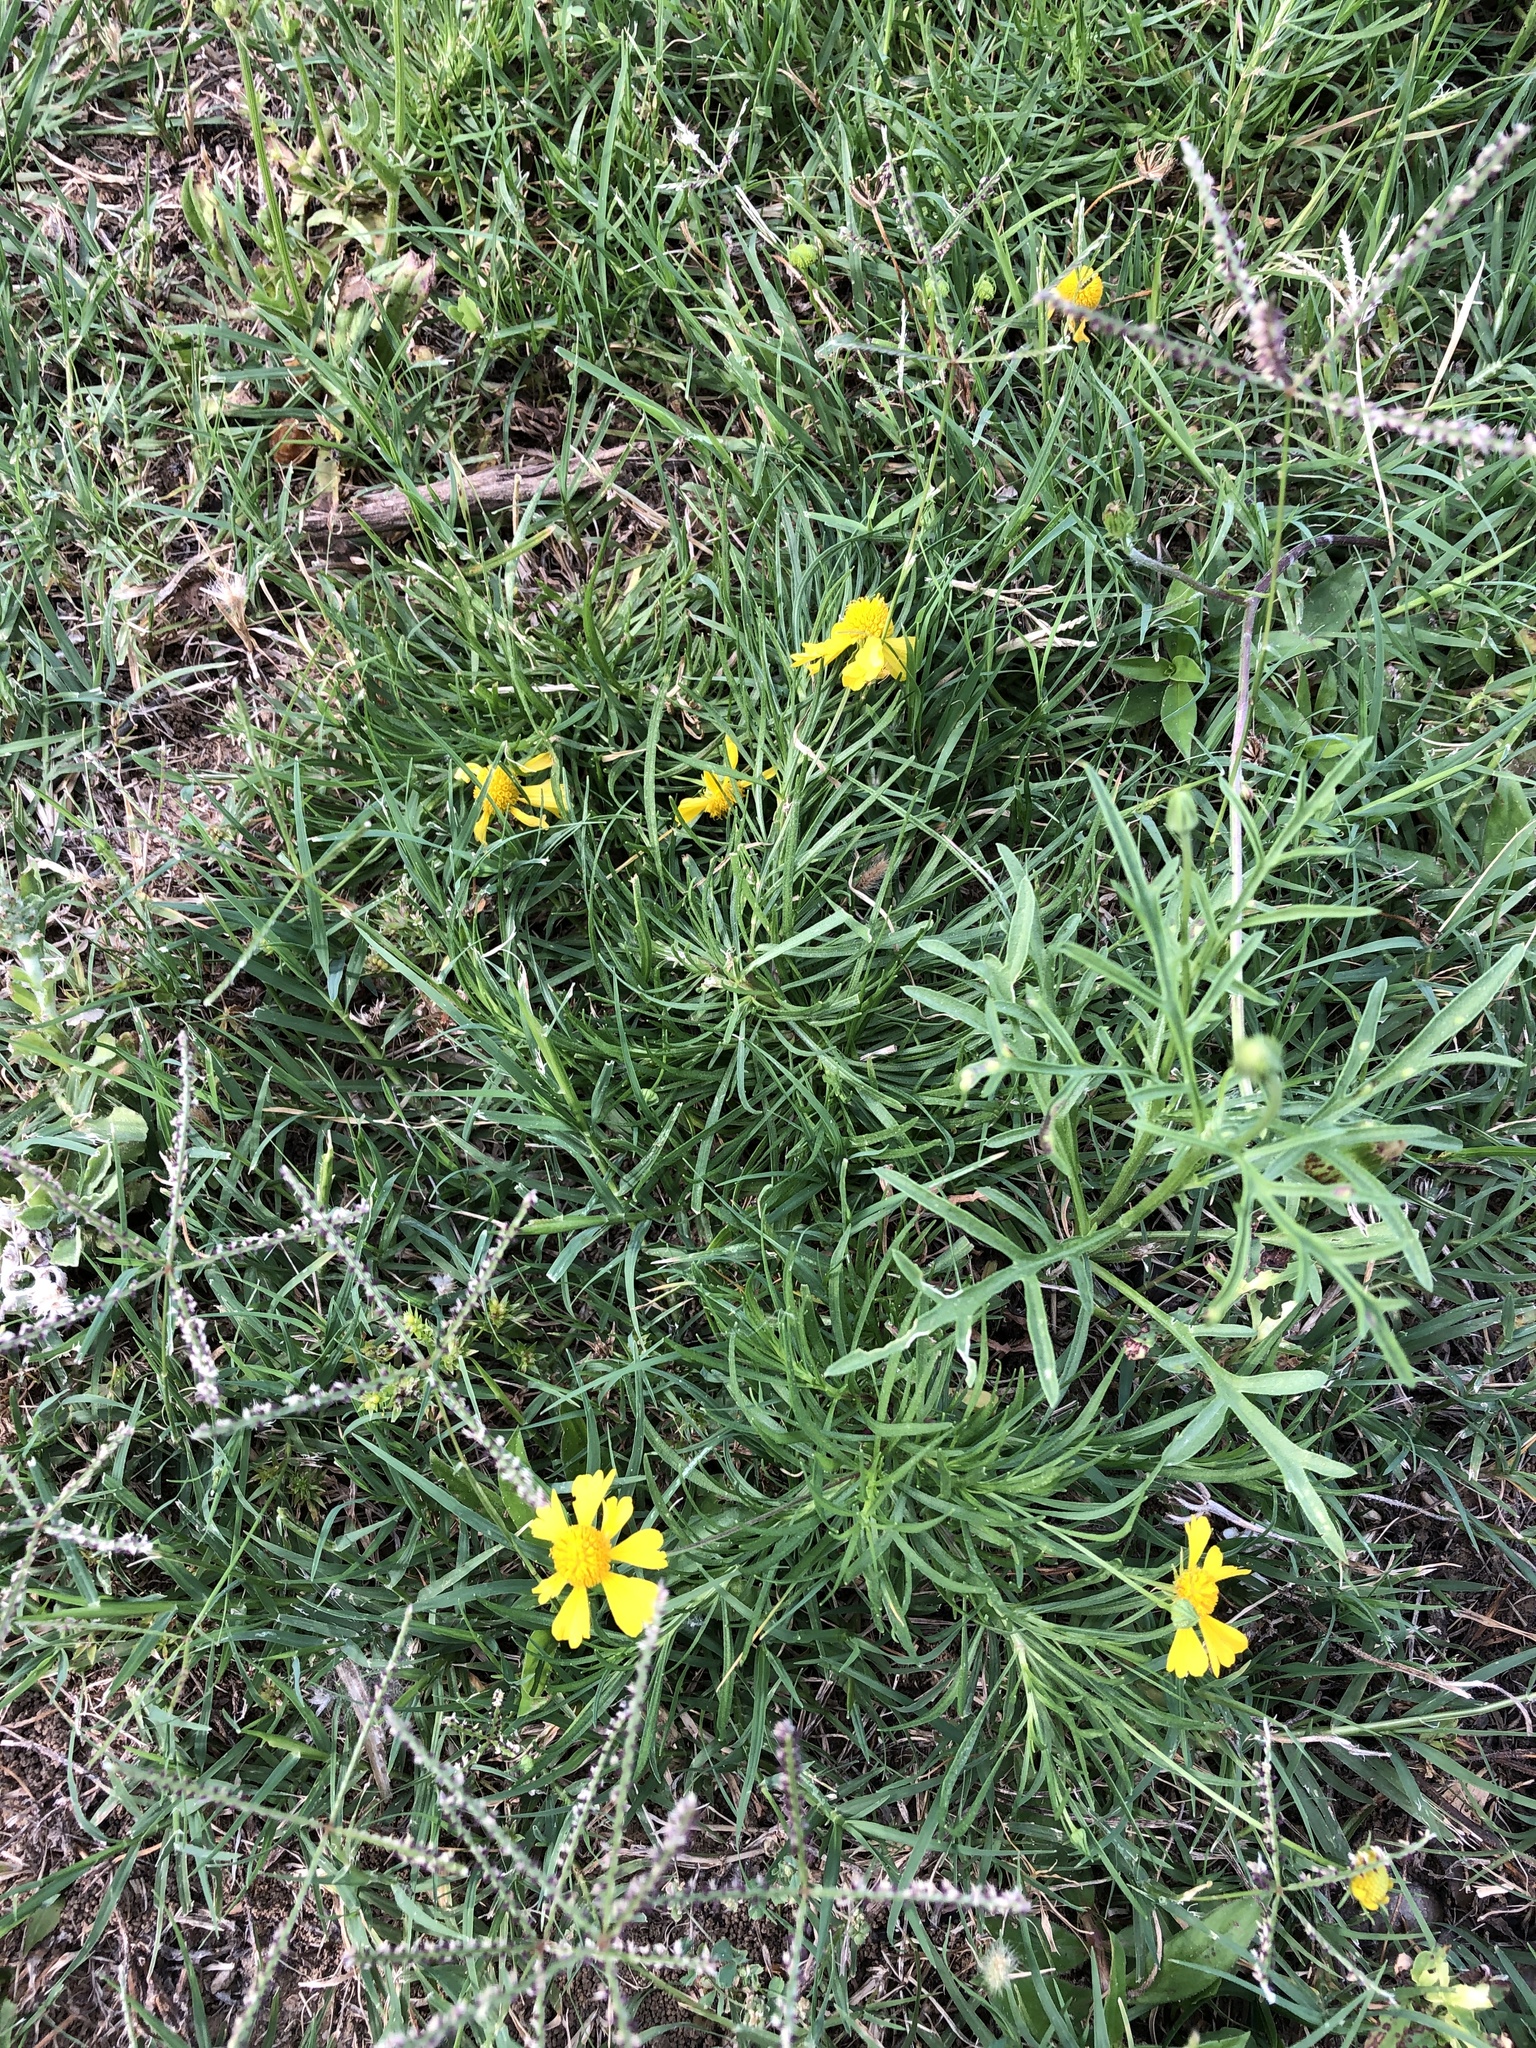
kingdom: Plantae
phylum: Tracheophyta
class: Magnoliopsida
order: Asterales
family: Asteraceae
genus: Helenium
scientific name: Helenium amarum
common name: Bitter sneezeweed
